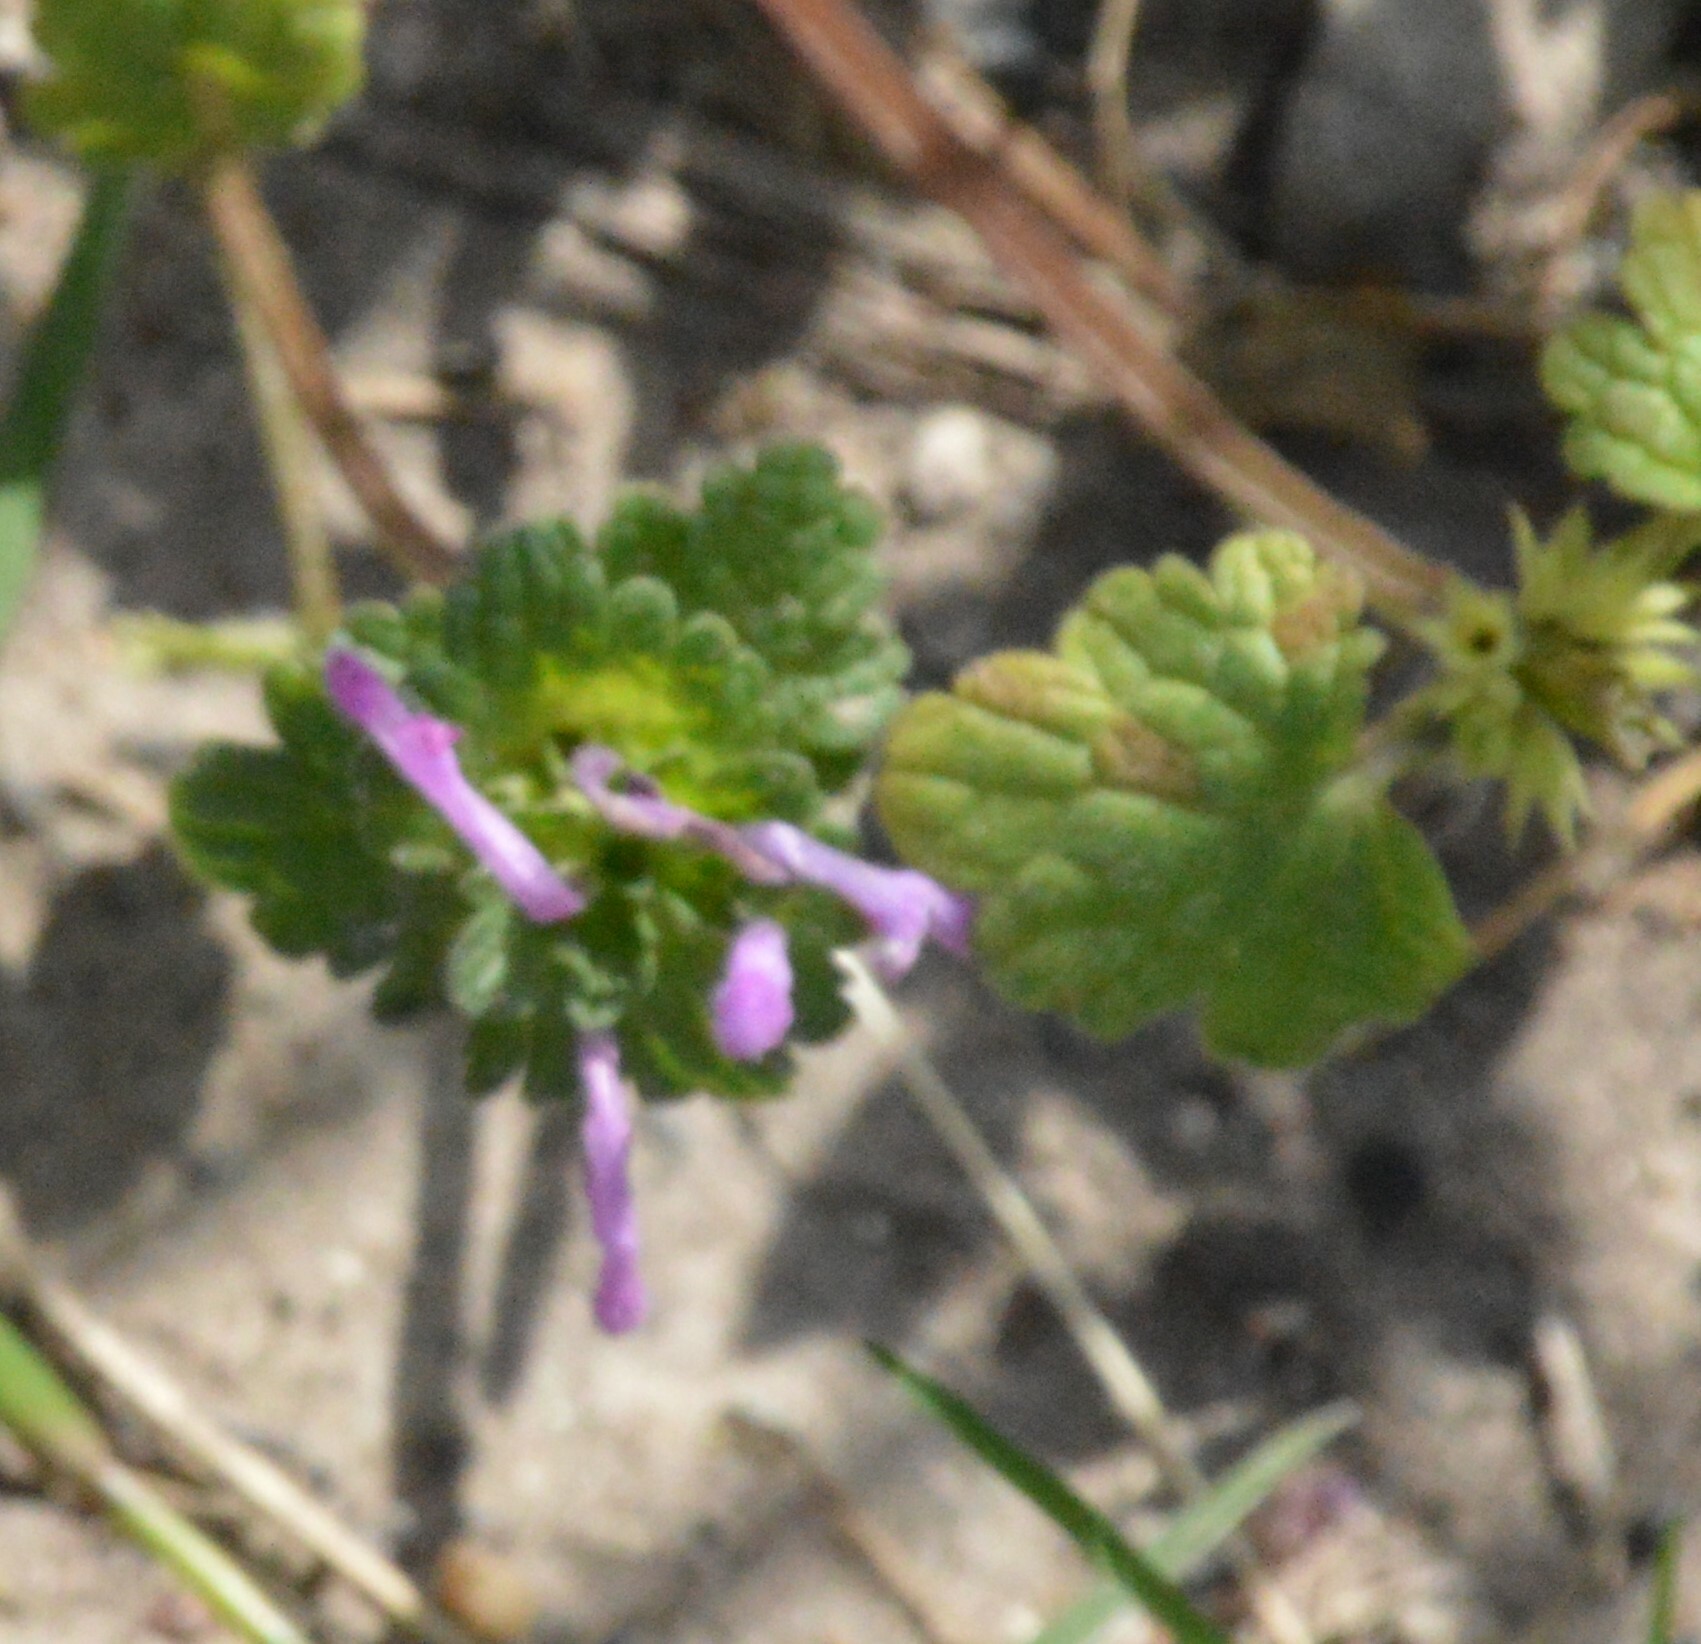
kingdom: Plantae
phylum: Tracheophyta
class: Magnoliopsida
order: Lamiales
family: Lamiaceae
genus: Lamium
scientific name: Lamium amplexicaule
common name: Henbit dead-nettle
